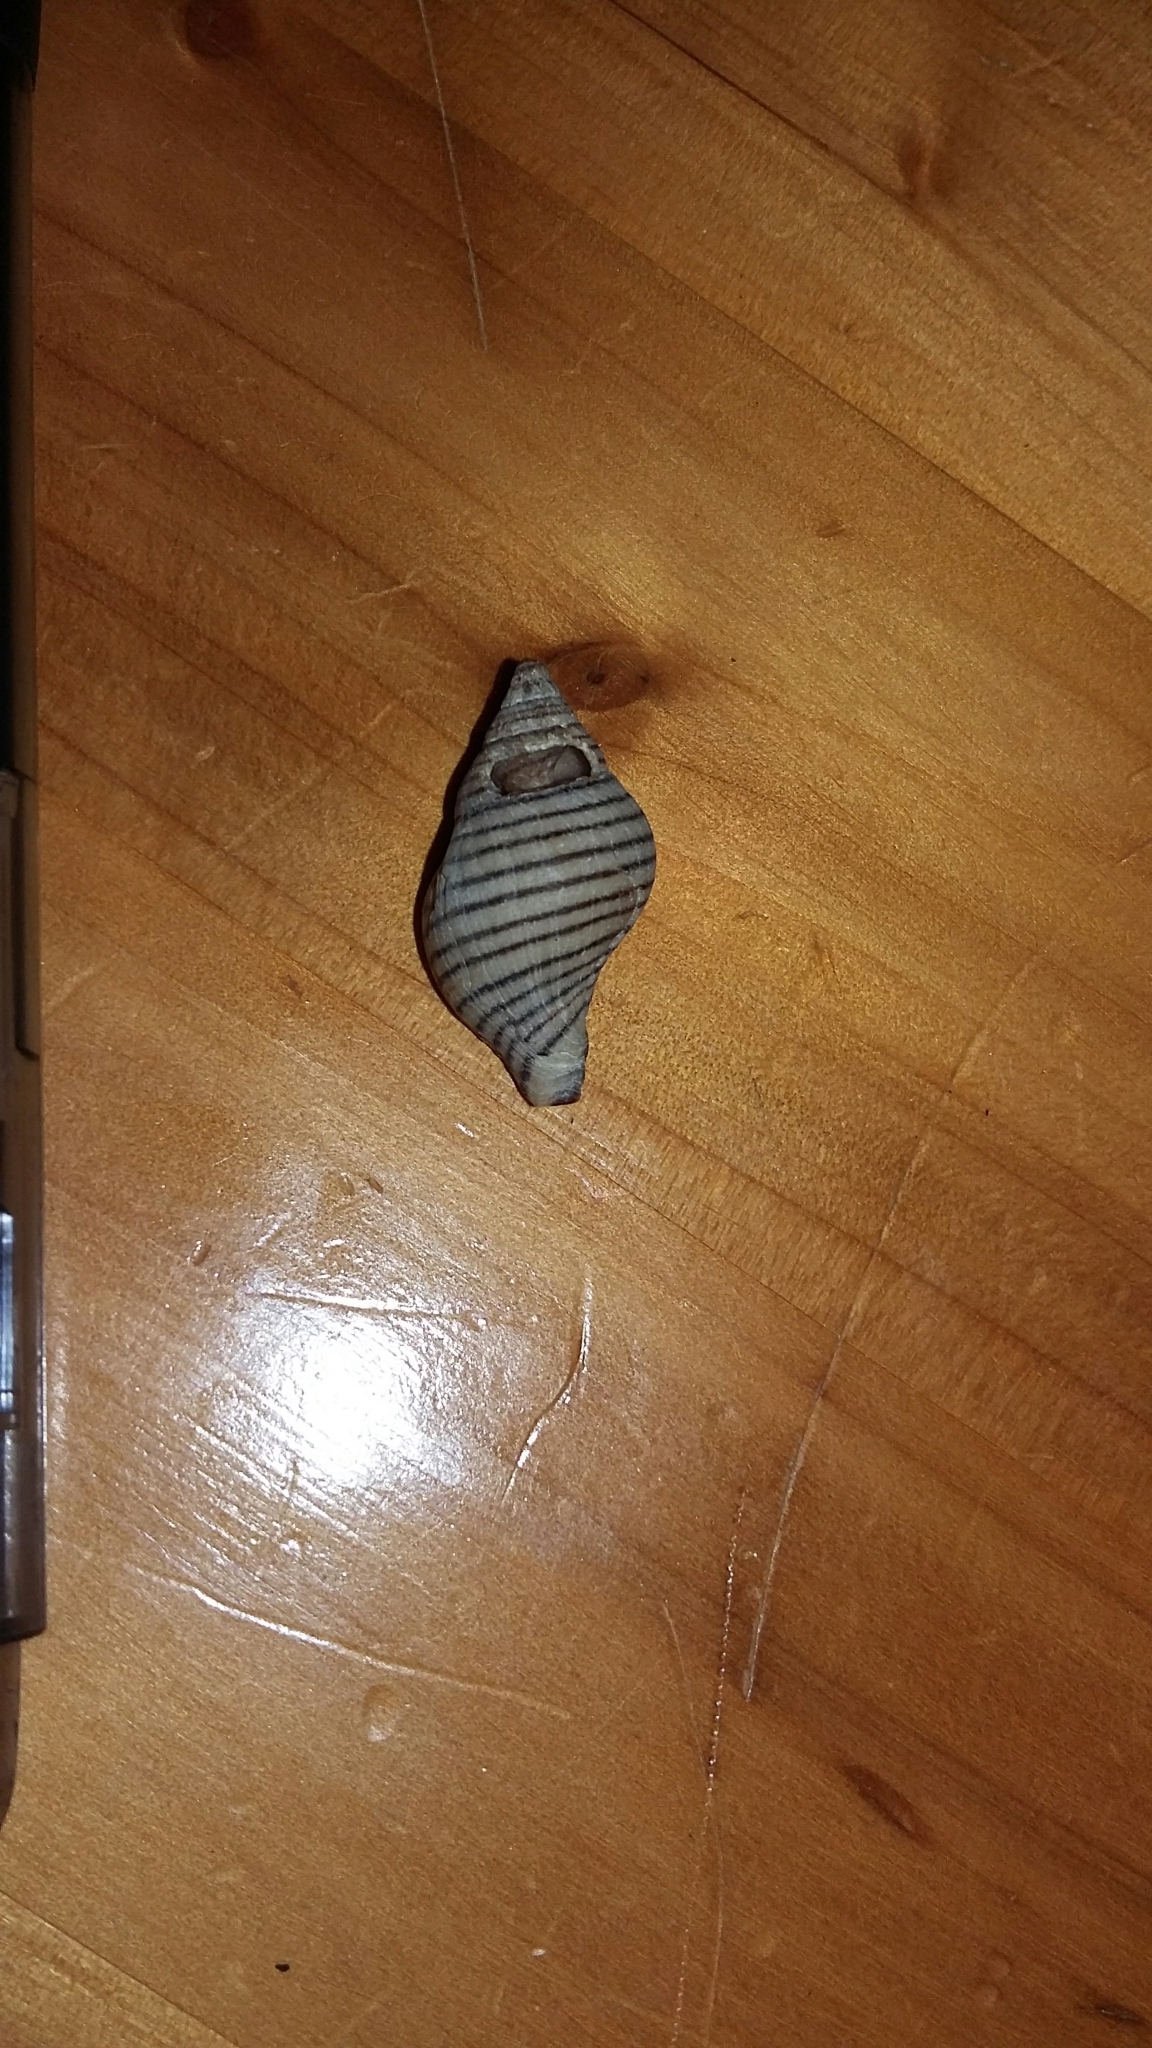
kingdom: Animalia
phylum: Mollusca
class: Gastropoda
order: Neogastropoda
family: Tudiclidae
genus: Buccinulum
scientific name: Buccinulum linea
